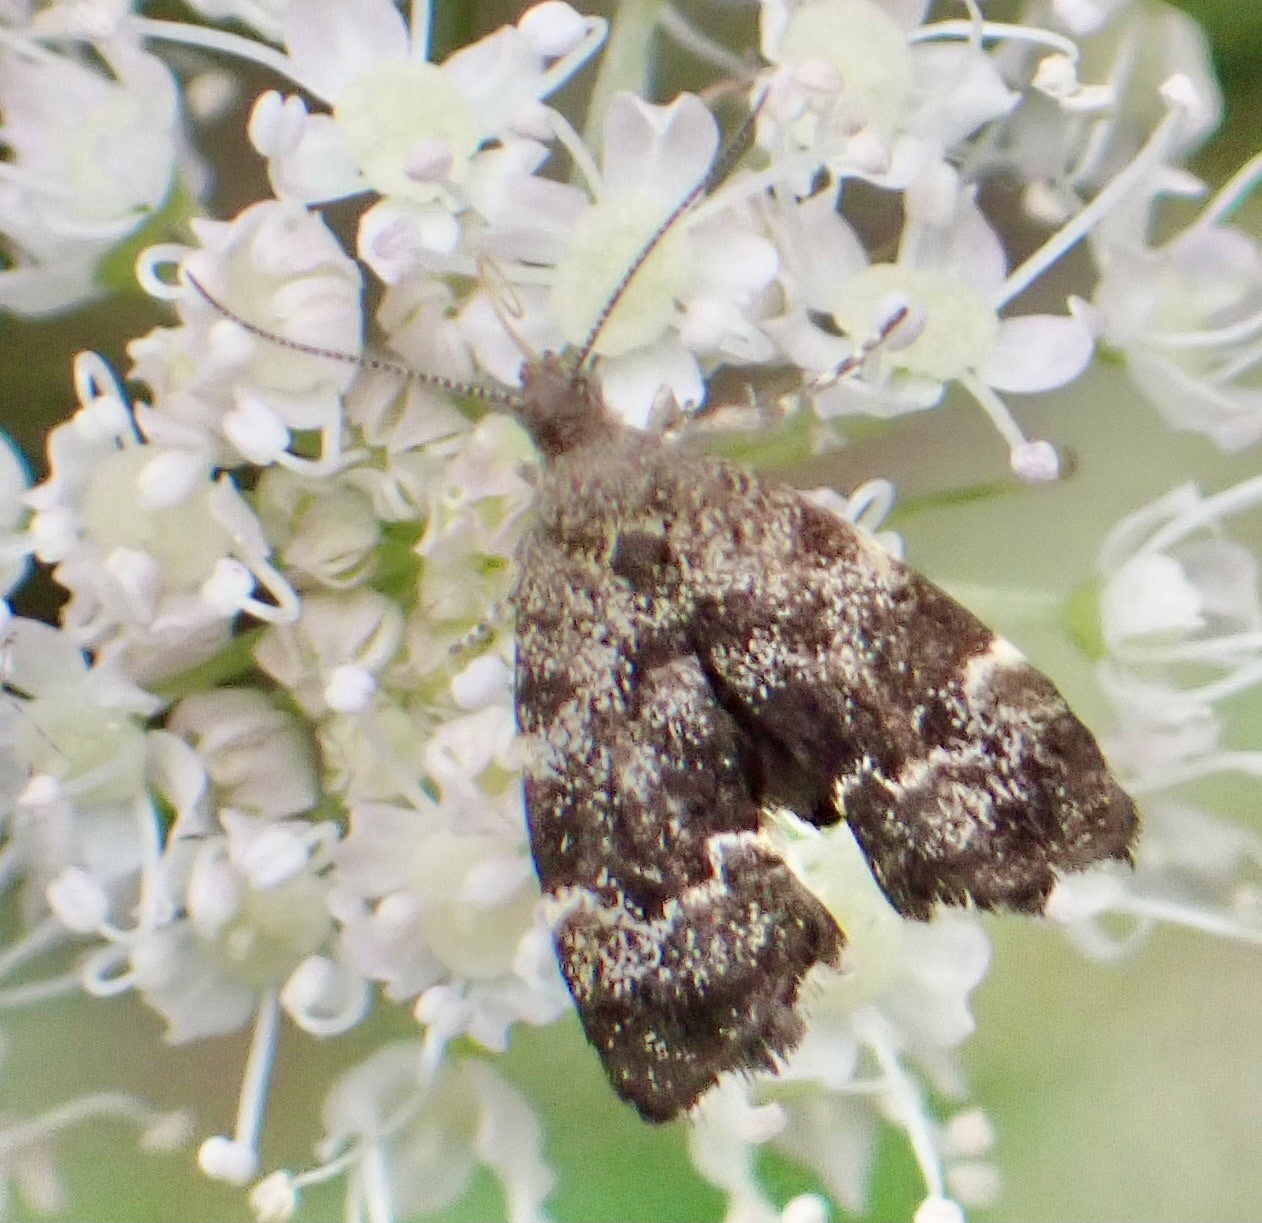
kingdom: Animalia
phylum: Arthropoda
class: Insecta
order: Lepidoptera
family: Choreutidae
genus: Anthophila
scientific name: Anthophila fabriciana
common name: Nettle-tap
